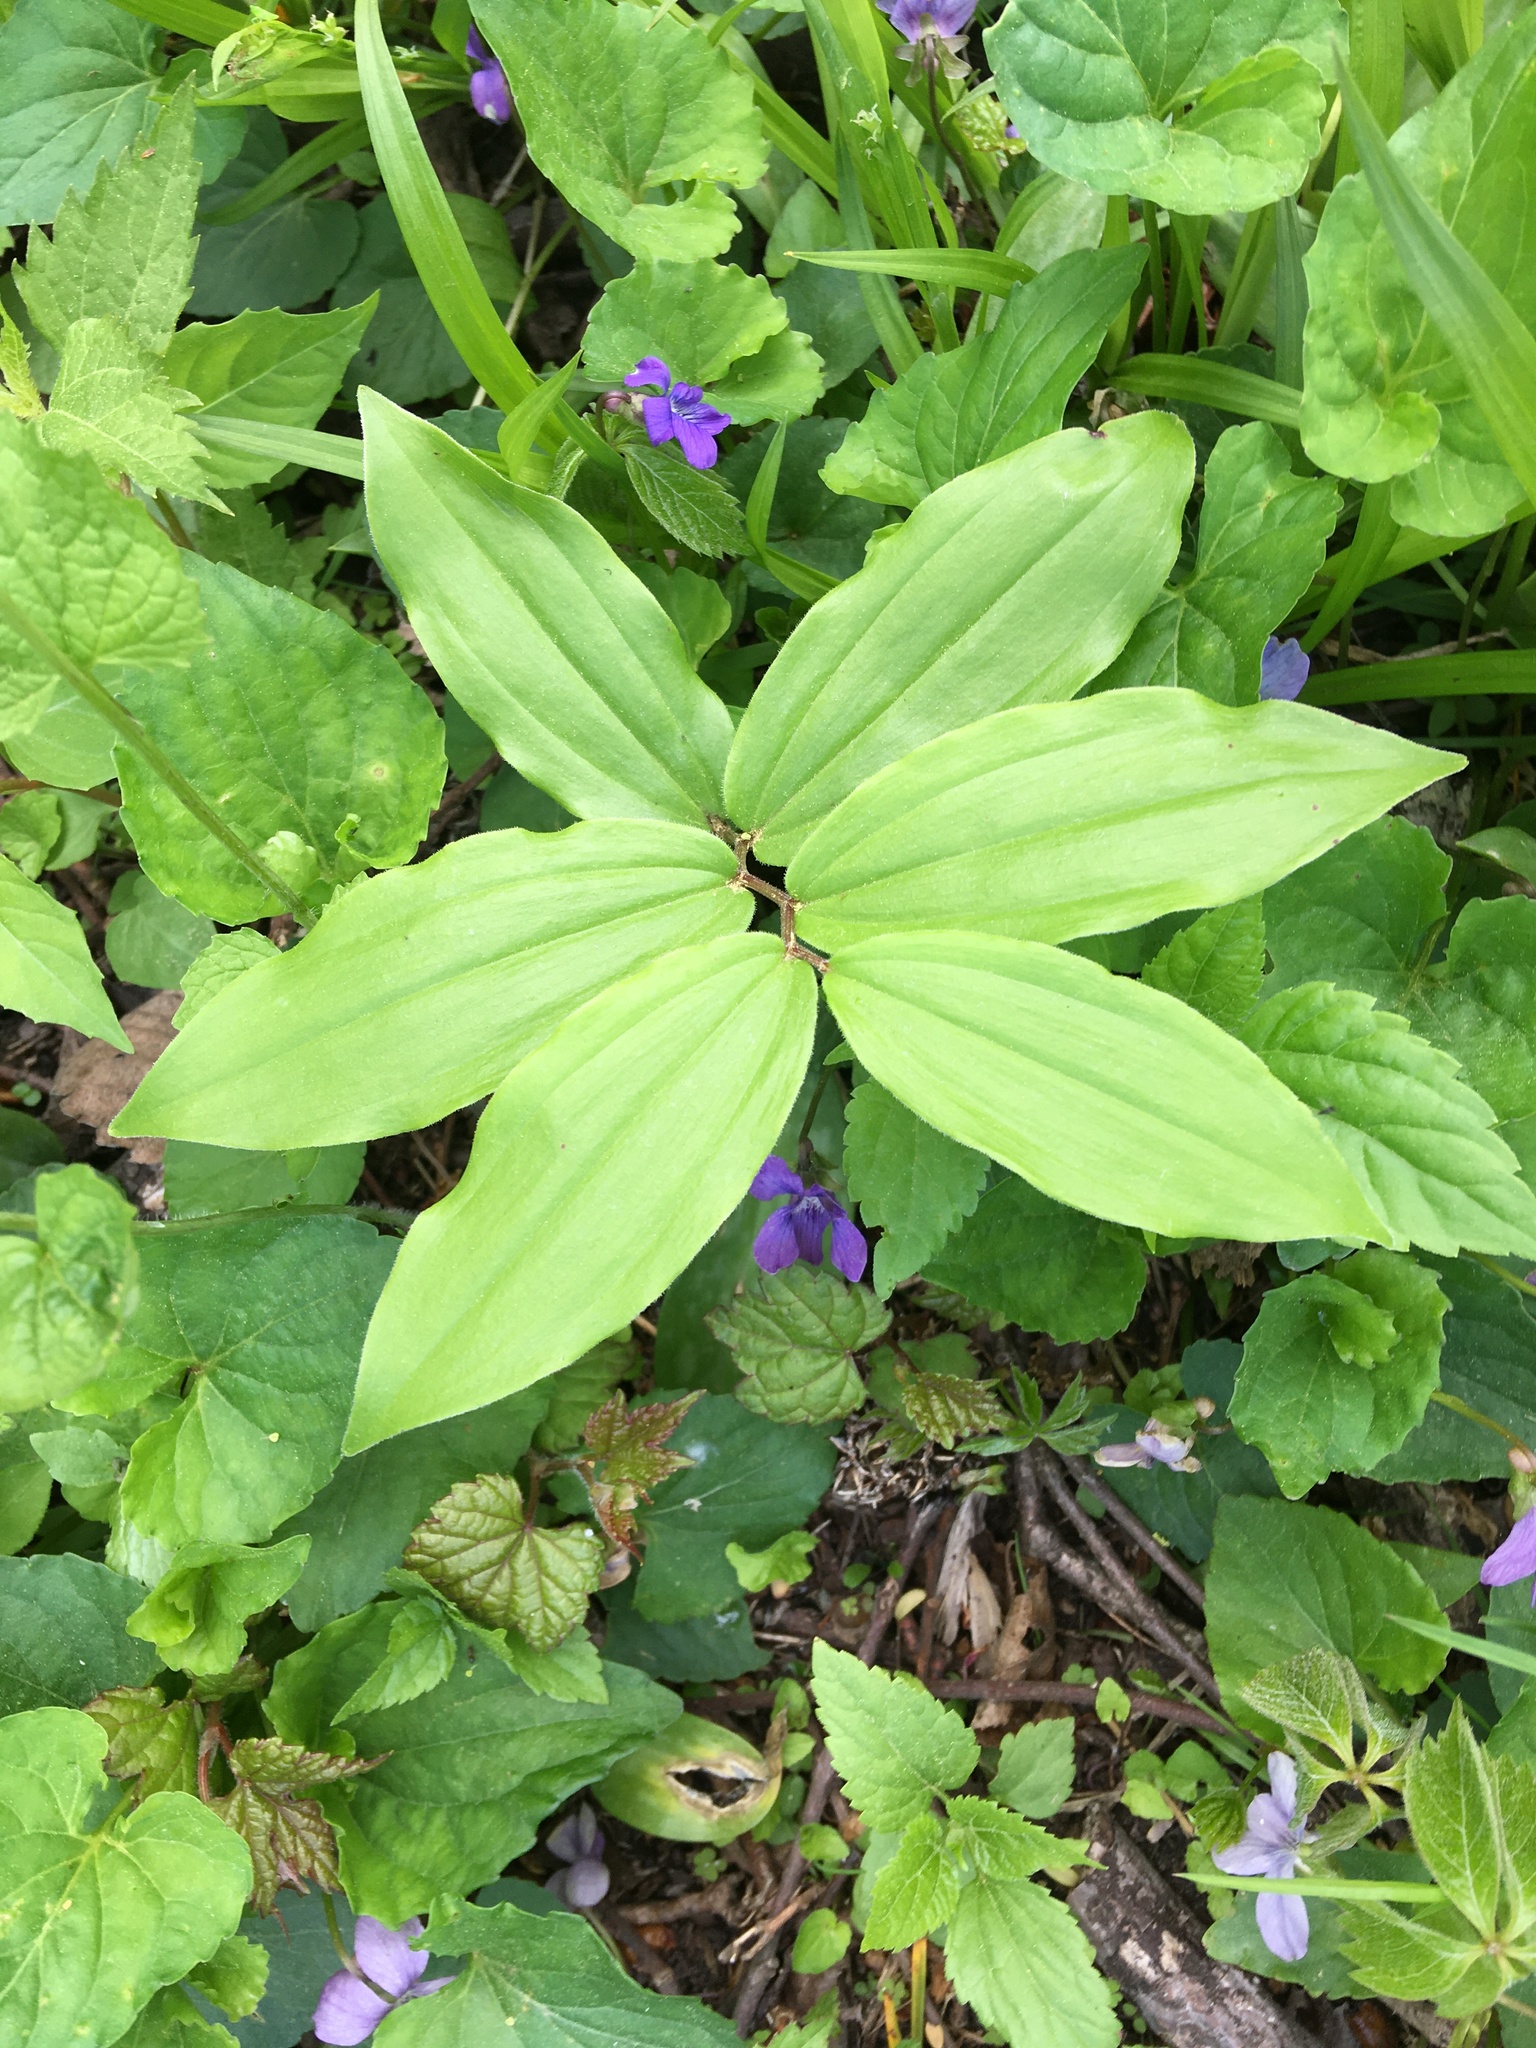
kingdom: Plantae
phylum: Tracheophyta
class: Liliopsida
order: Asparagales
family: Asparagaceae
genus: Maianthemum
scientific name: Maianthemum racemosum
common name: False spikenard
